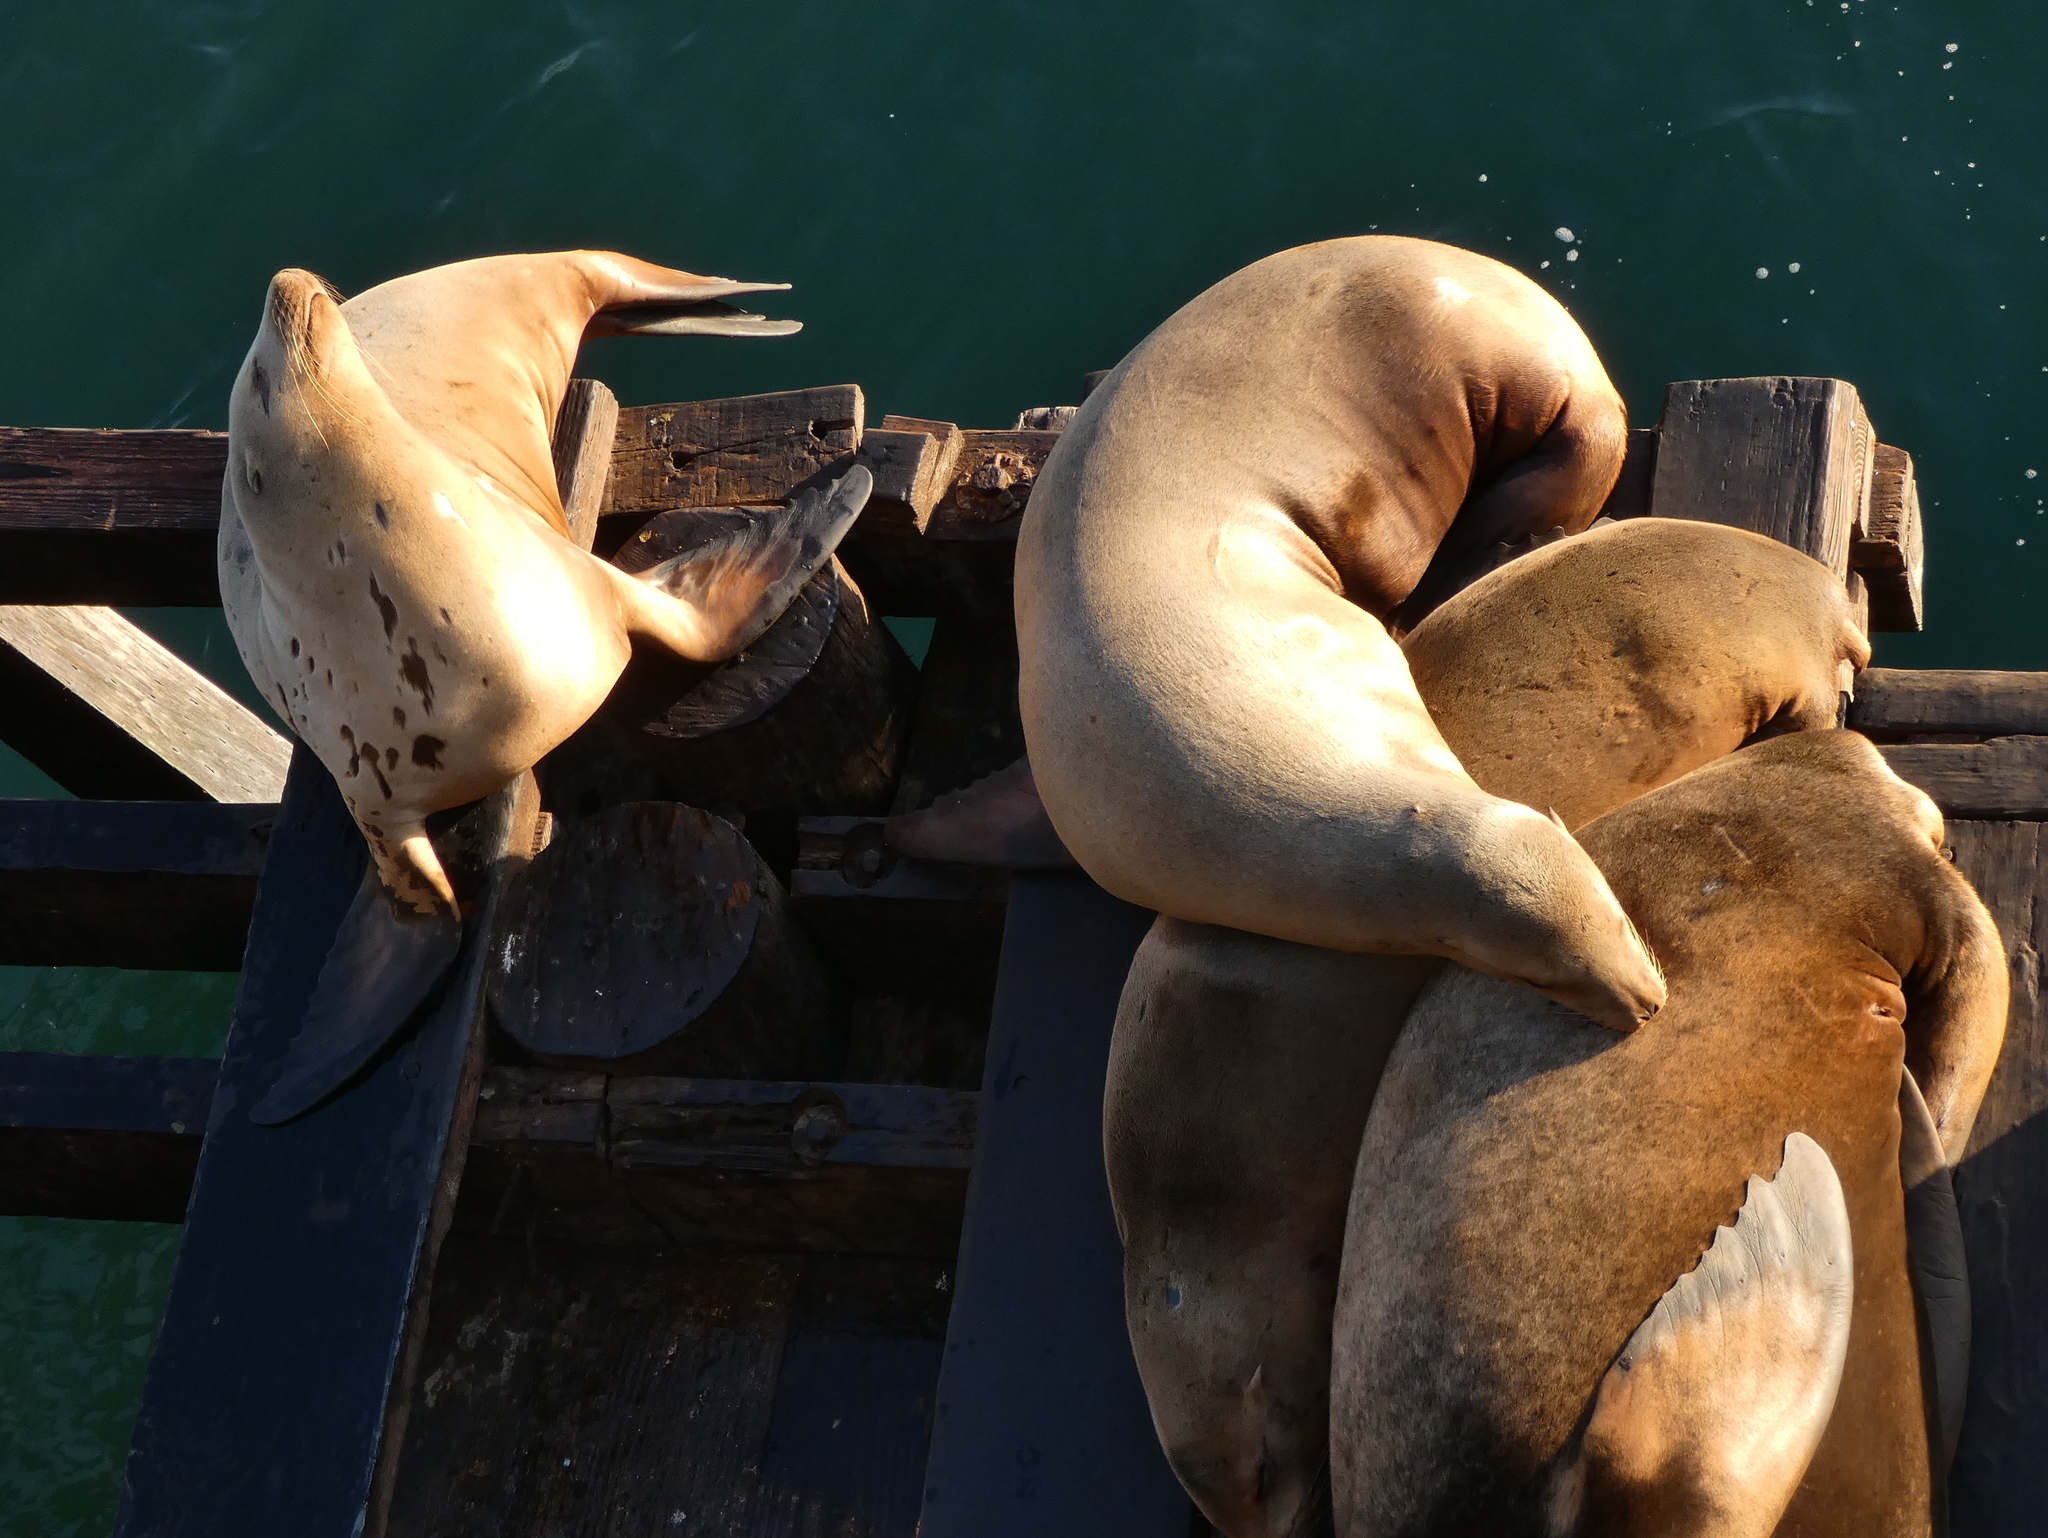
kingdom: Animalia
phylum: Chordata
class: Mammalia
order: Carnivora
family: Otariidae
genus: Zalophus
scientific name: Zalophus californianus
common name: California sea lion
